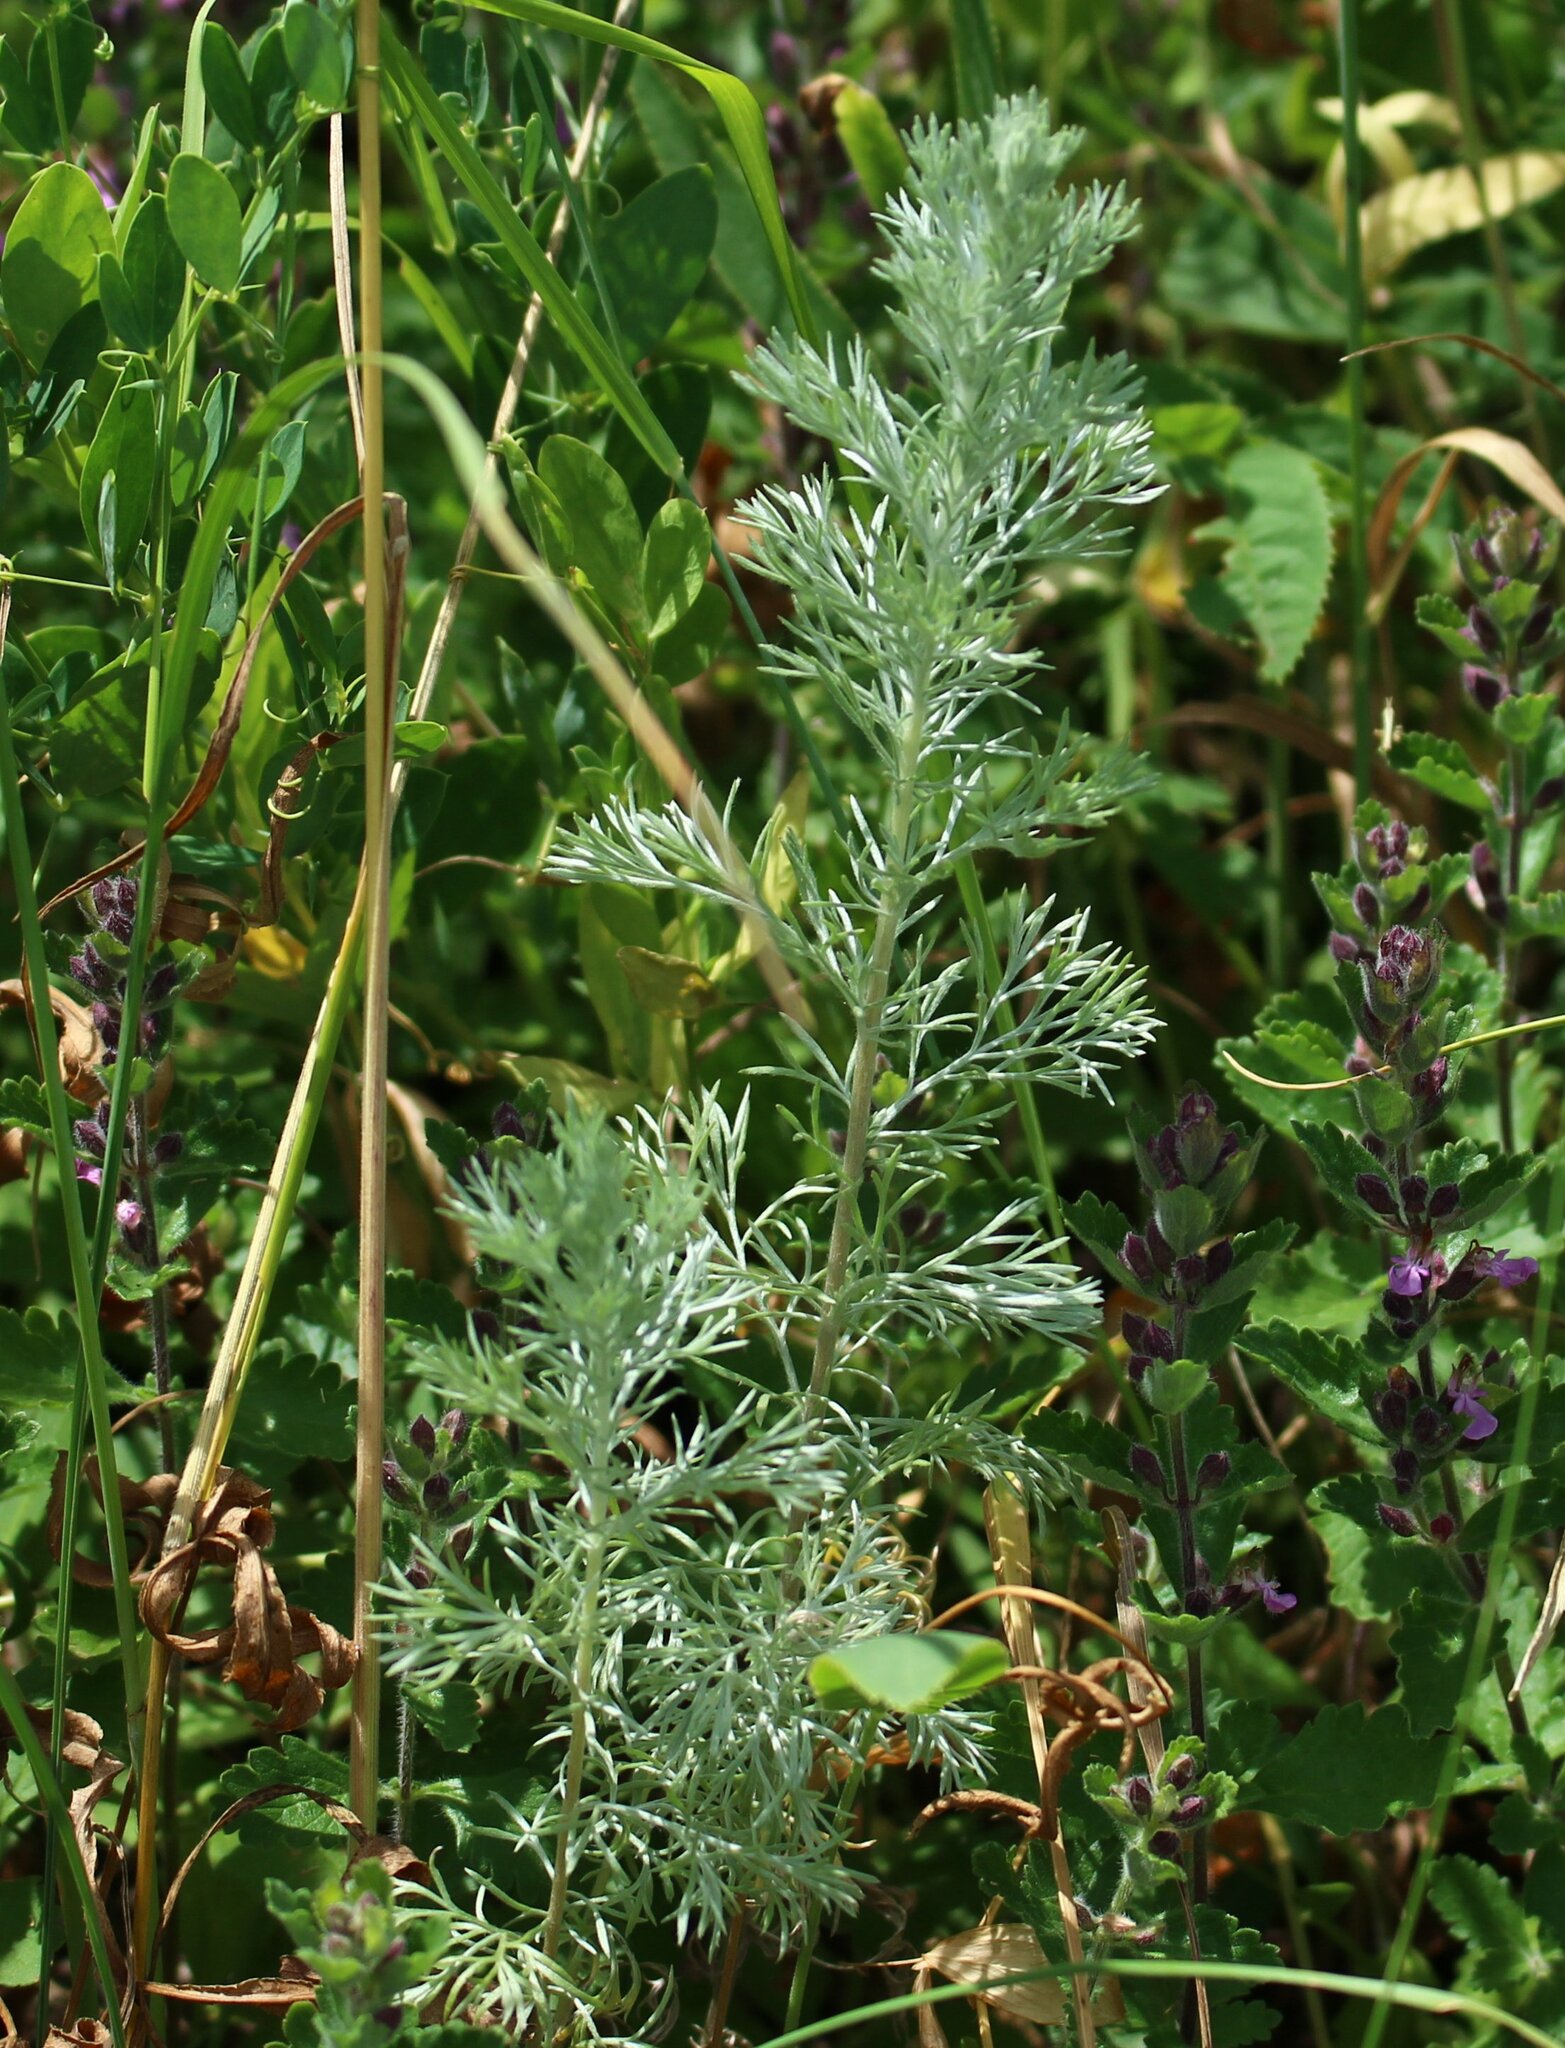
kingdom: Plantae
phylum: Tracheophyta
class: Magnoliopsida
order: Asterales
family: Asteraceae
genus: Artemisia
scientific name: Artemisia austriaca
